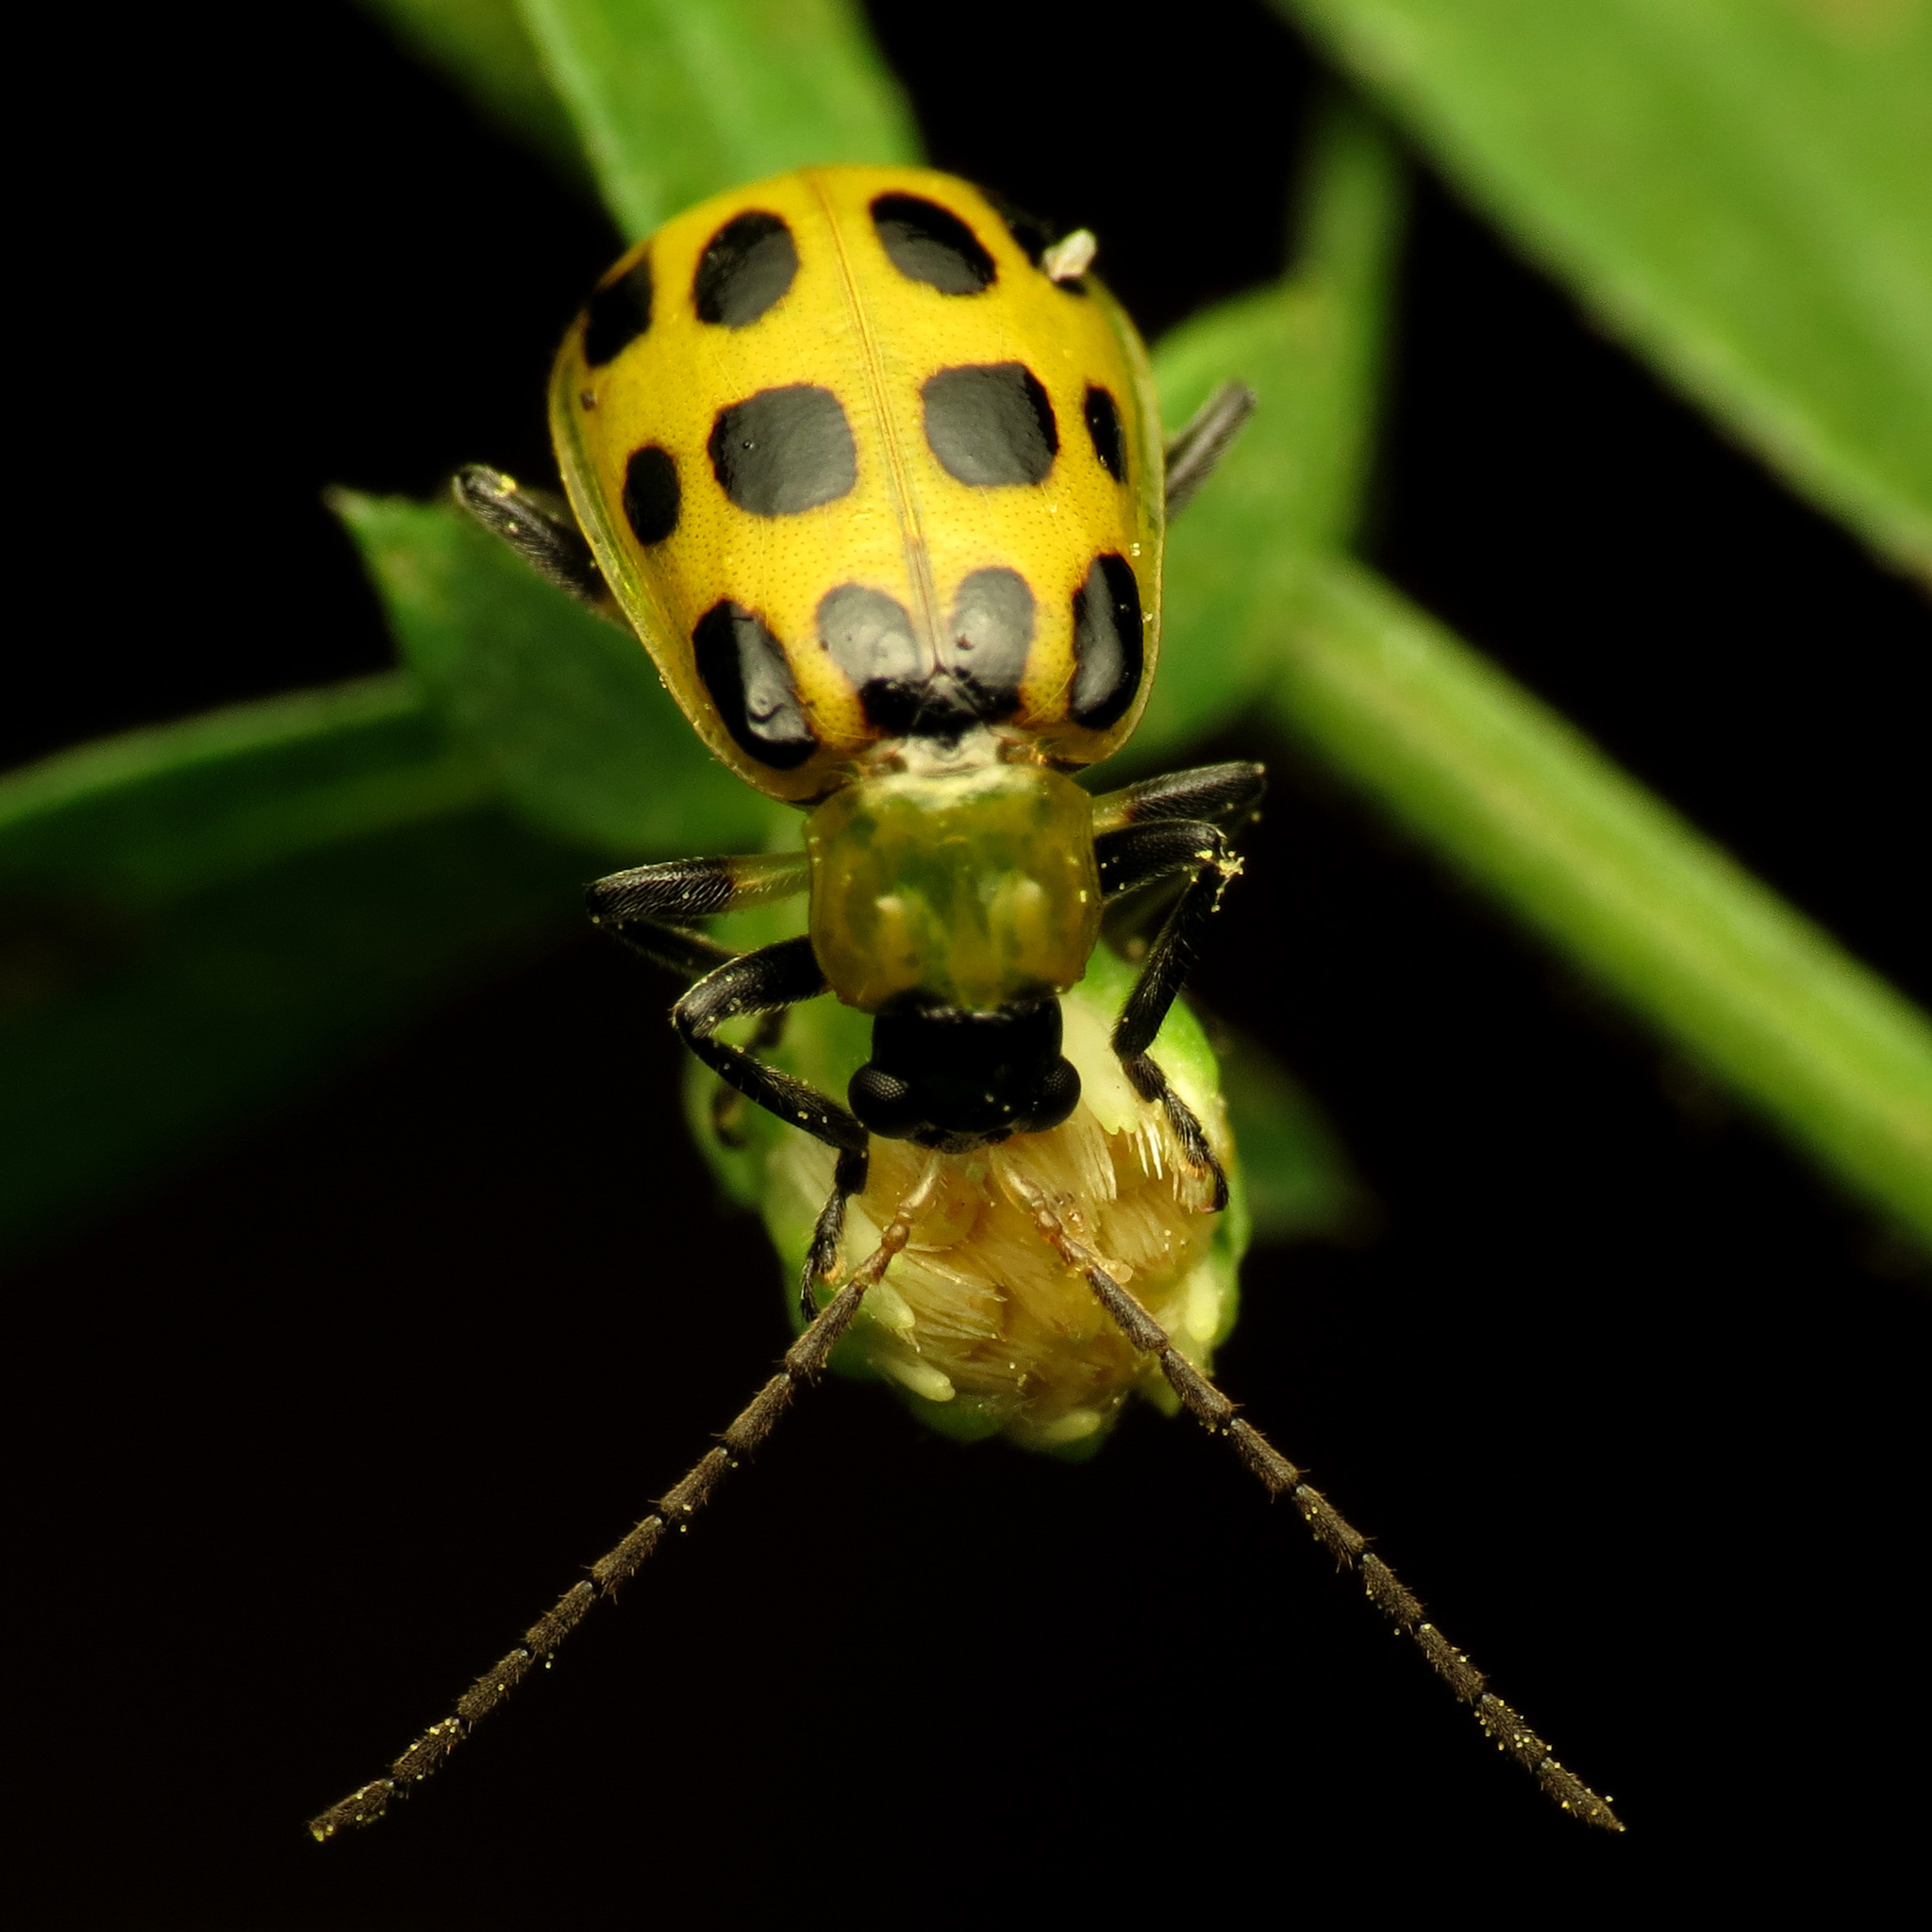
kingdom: Animalia
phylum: Arthropoda
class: Insecta
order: Coleoptera
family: Chrysomelidae
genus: Diabrotica
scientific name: Diabrotica undecimpunctata
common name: Spotted cucumber beetle
